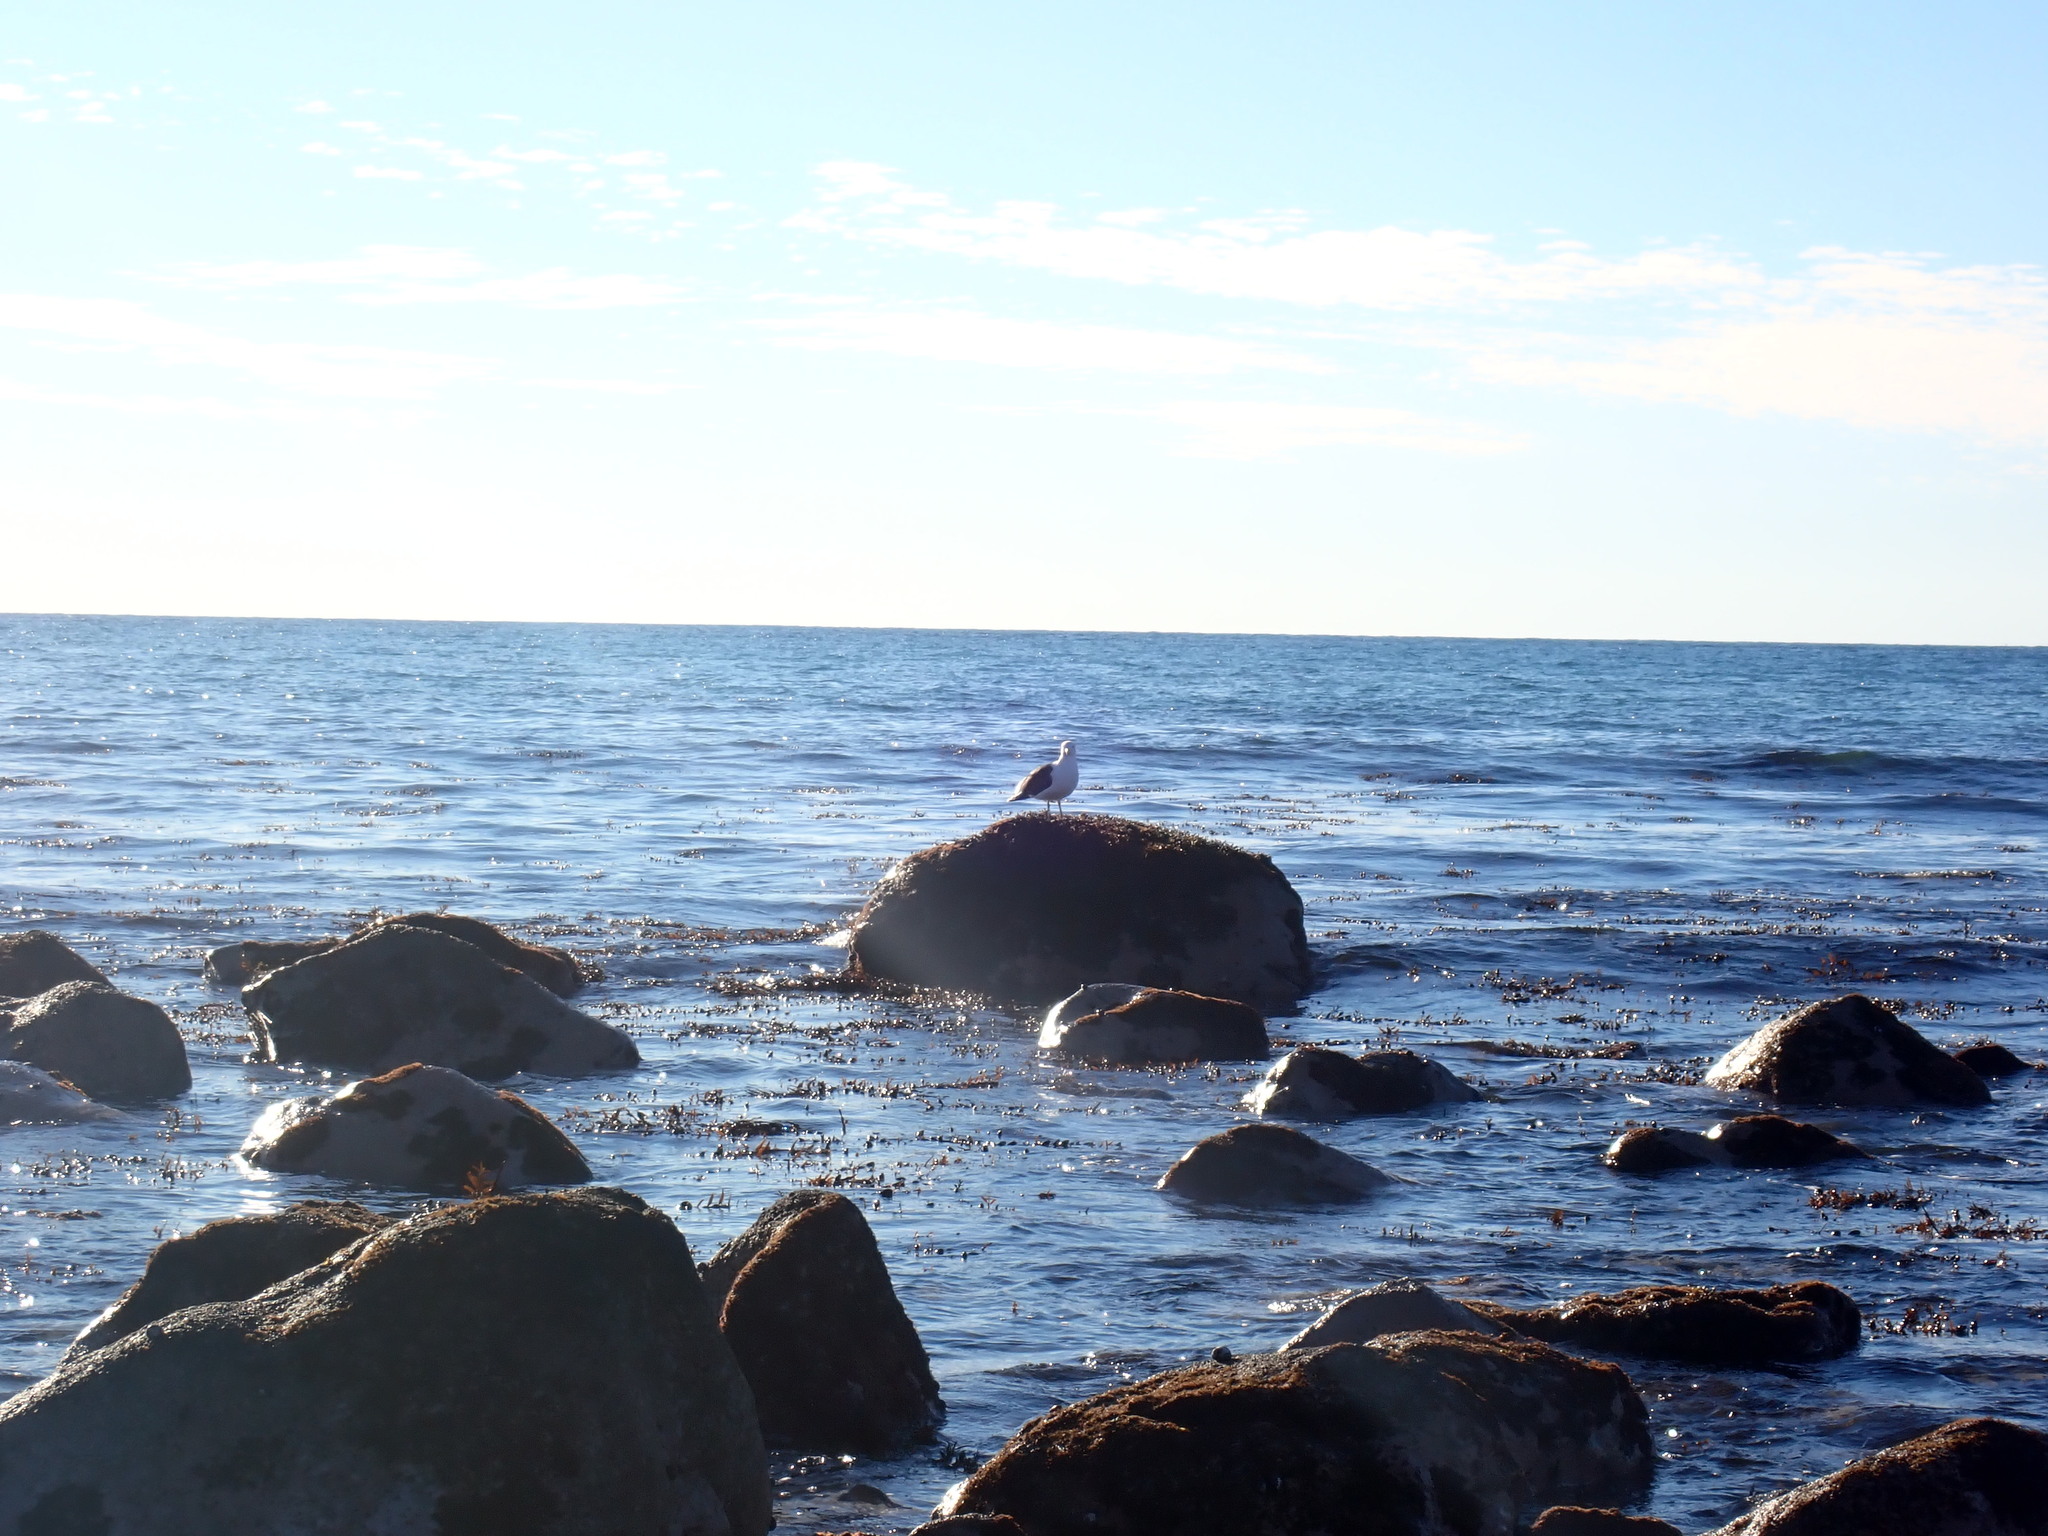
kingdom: Animalia
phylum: Chordata
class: Aves
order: Charadriiformes
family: Laridae
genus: Larus
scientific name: Larus dominicanus
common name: Kelp gull
